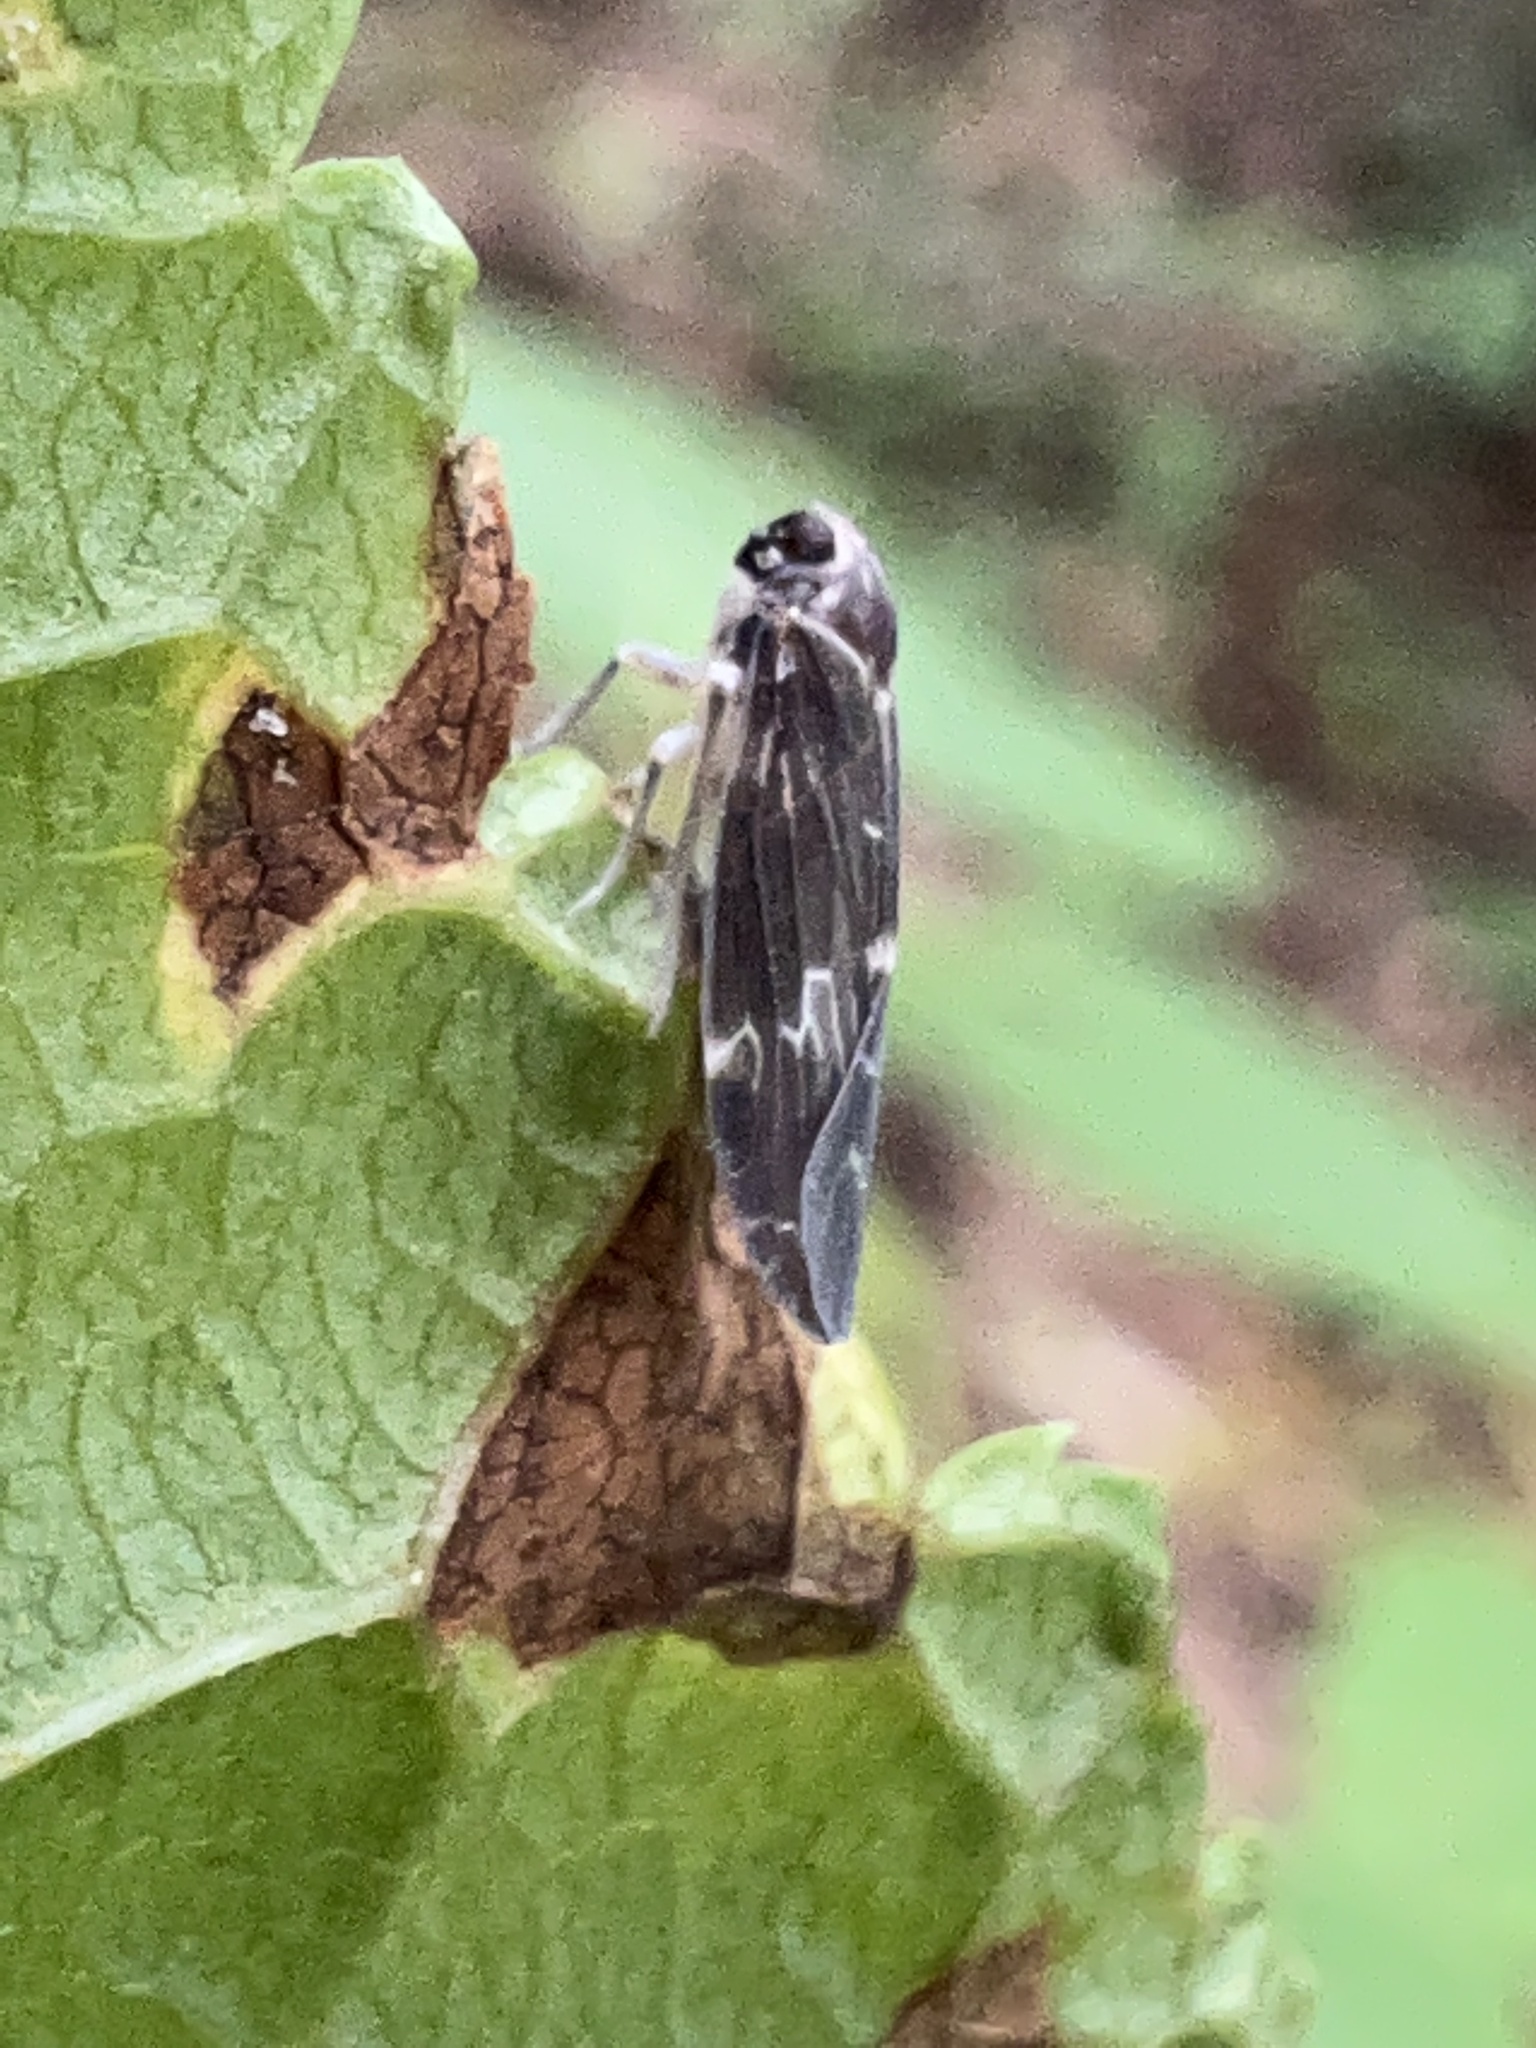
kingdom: Animalia
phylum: Arthropoda
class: Insecta
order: Hemiptera
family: Achilidae
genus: Synecdoche
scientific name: Synecdoche dimidiata
